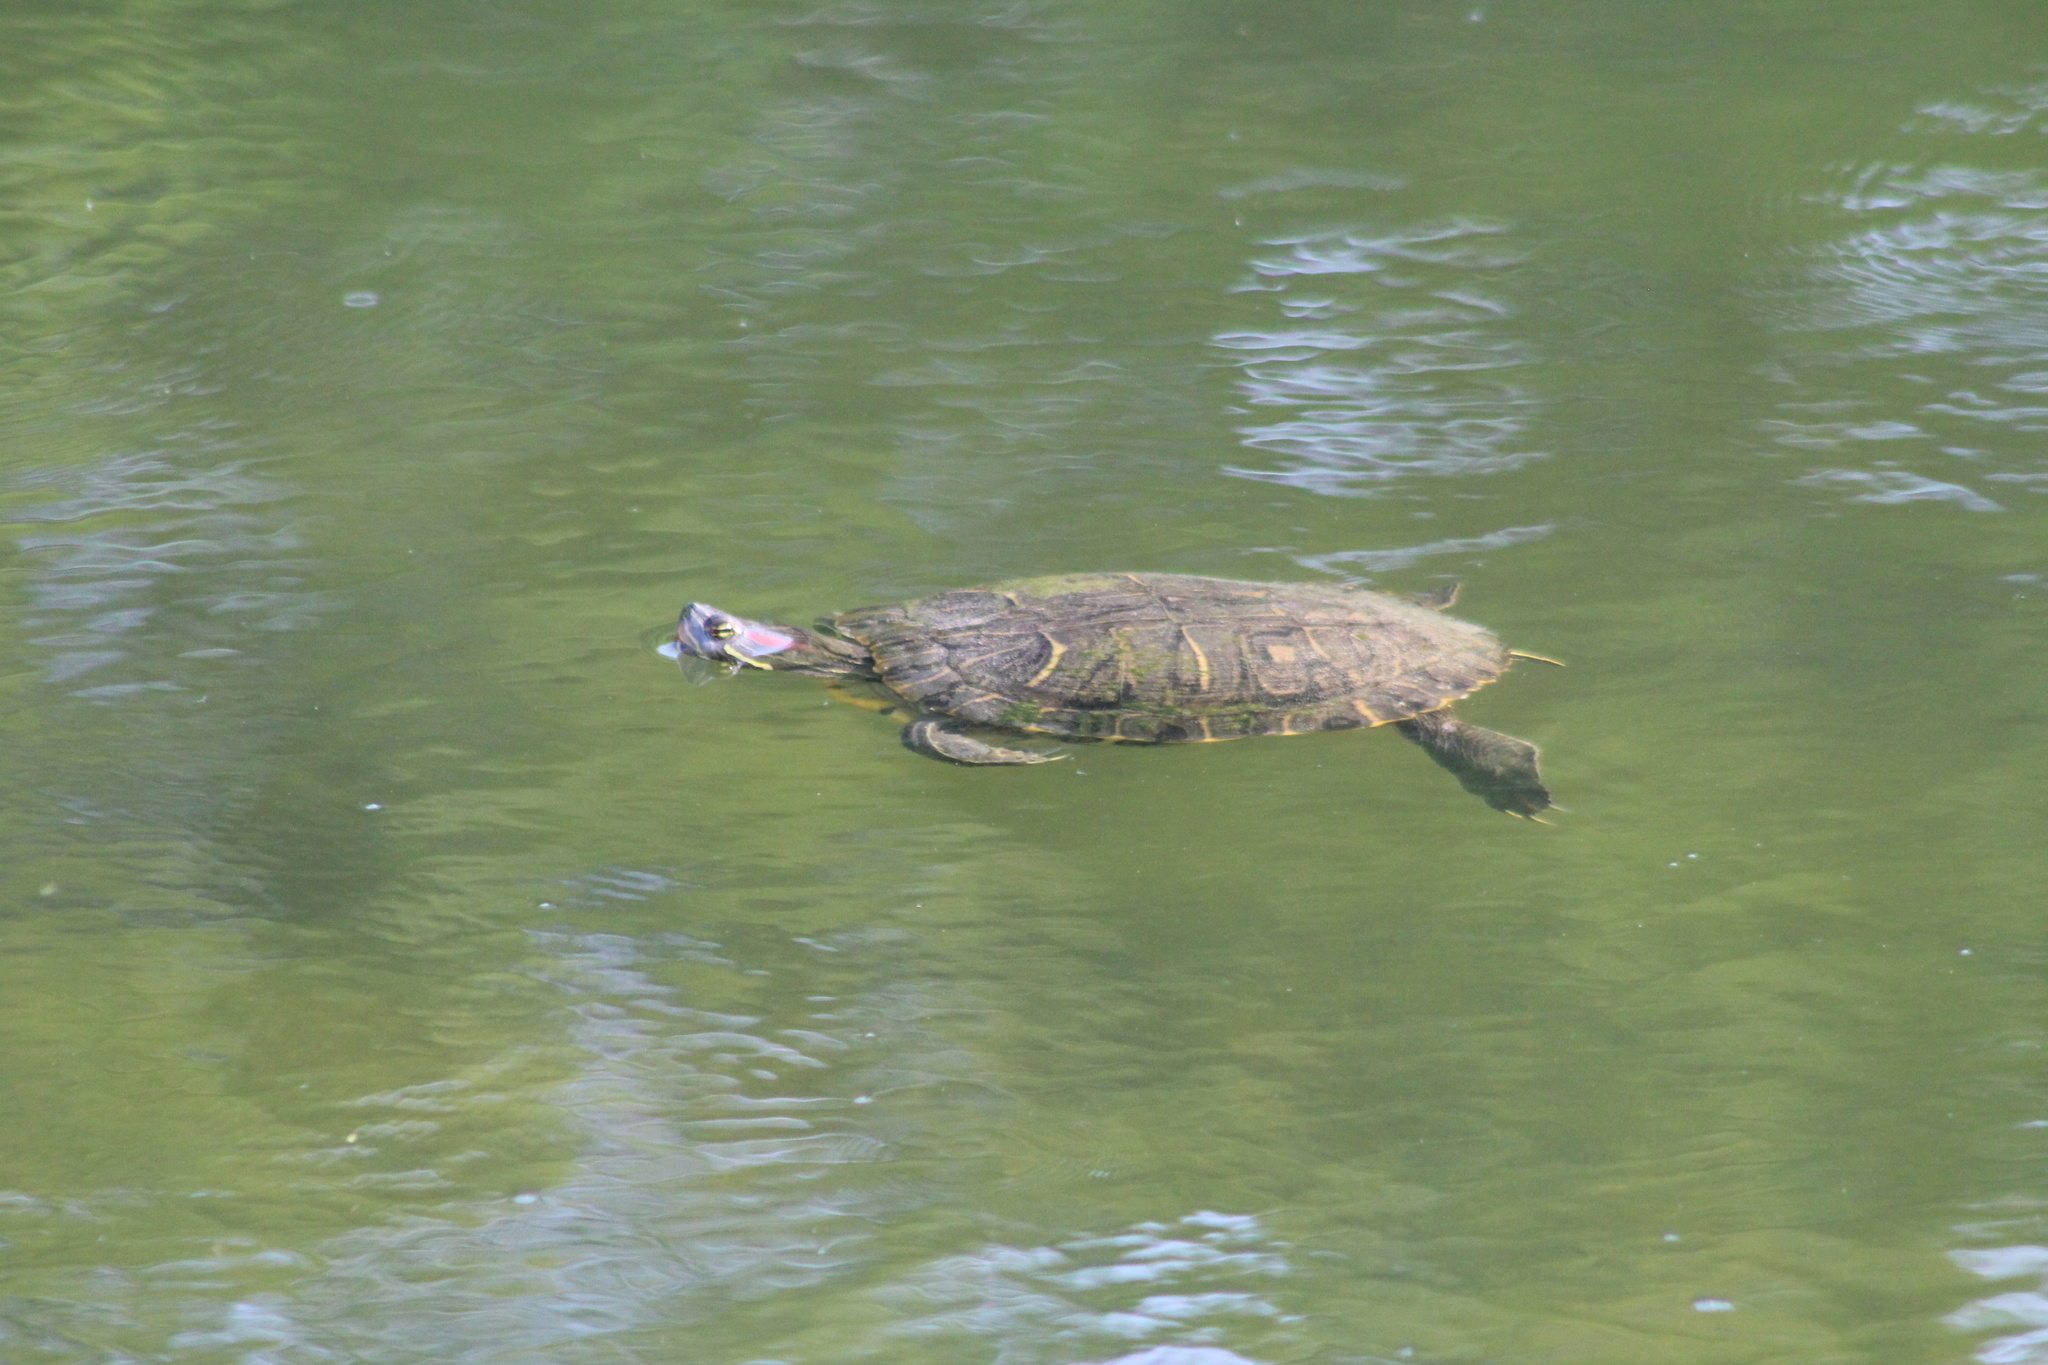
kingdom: Animalia
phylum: Chordata
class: Testudines
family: Emydidae
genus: Trachemys
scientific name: Trachemys scripta
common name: Slider
